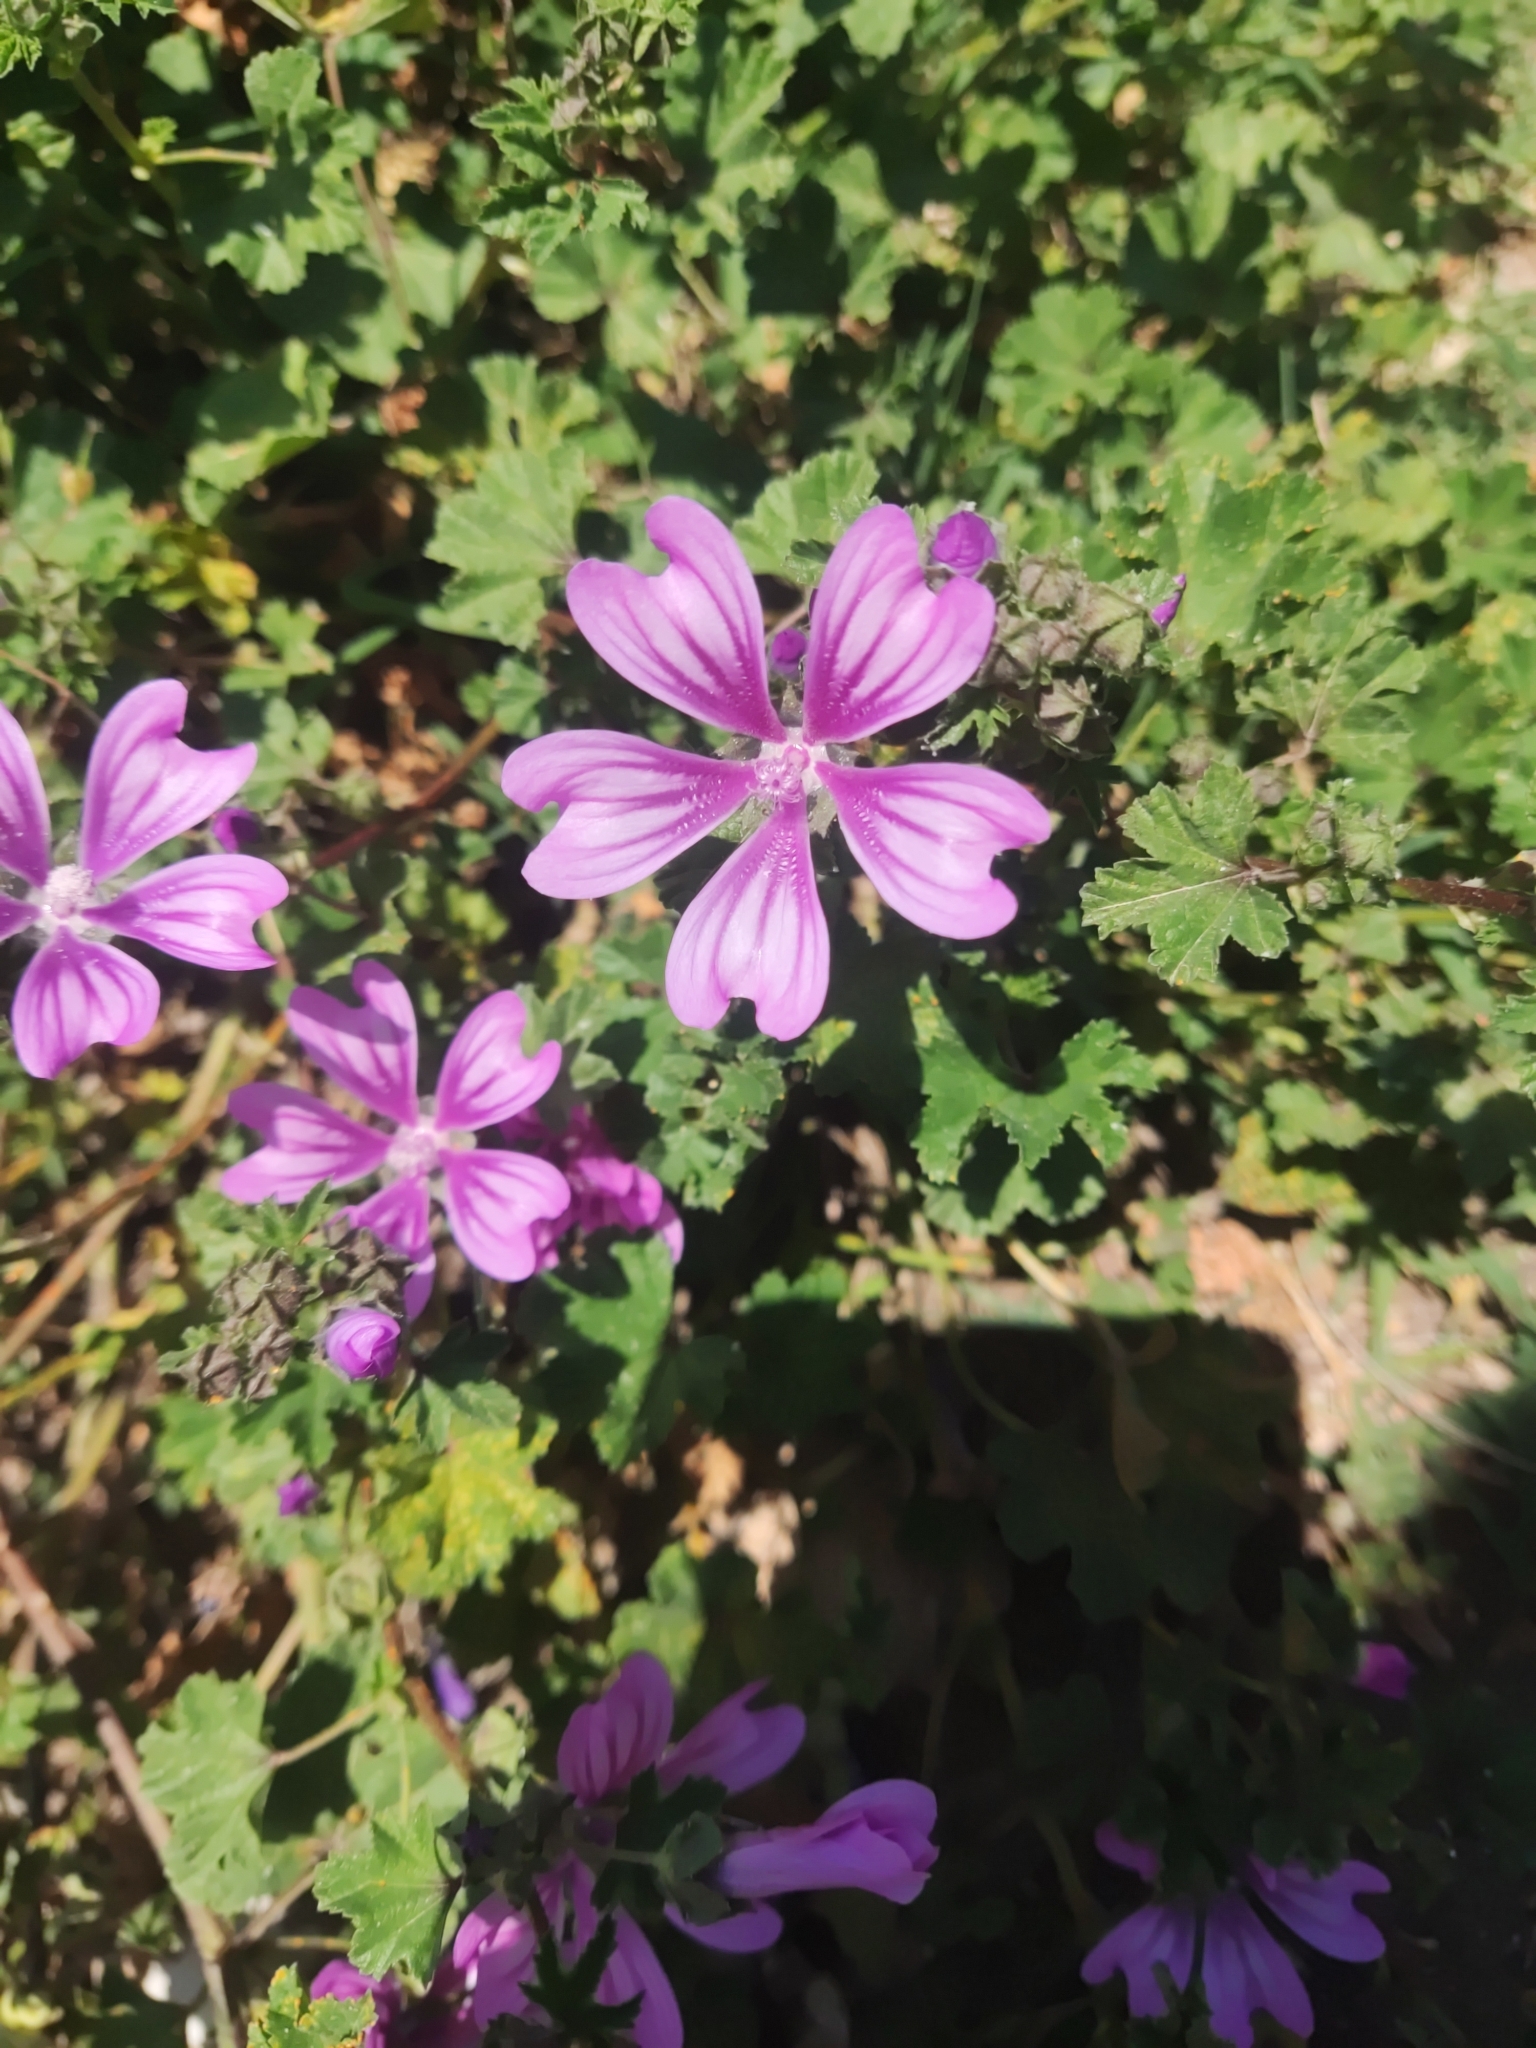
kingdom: Plantae
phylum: Tracheophyta
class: Magnoliopsida
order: Malvales
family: Malvaceae
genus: Malva
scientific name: Malva sylvestris
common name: Common mallow
